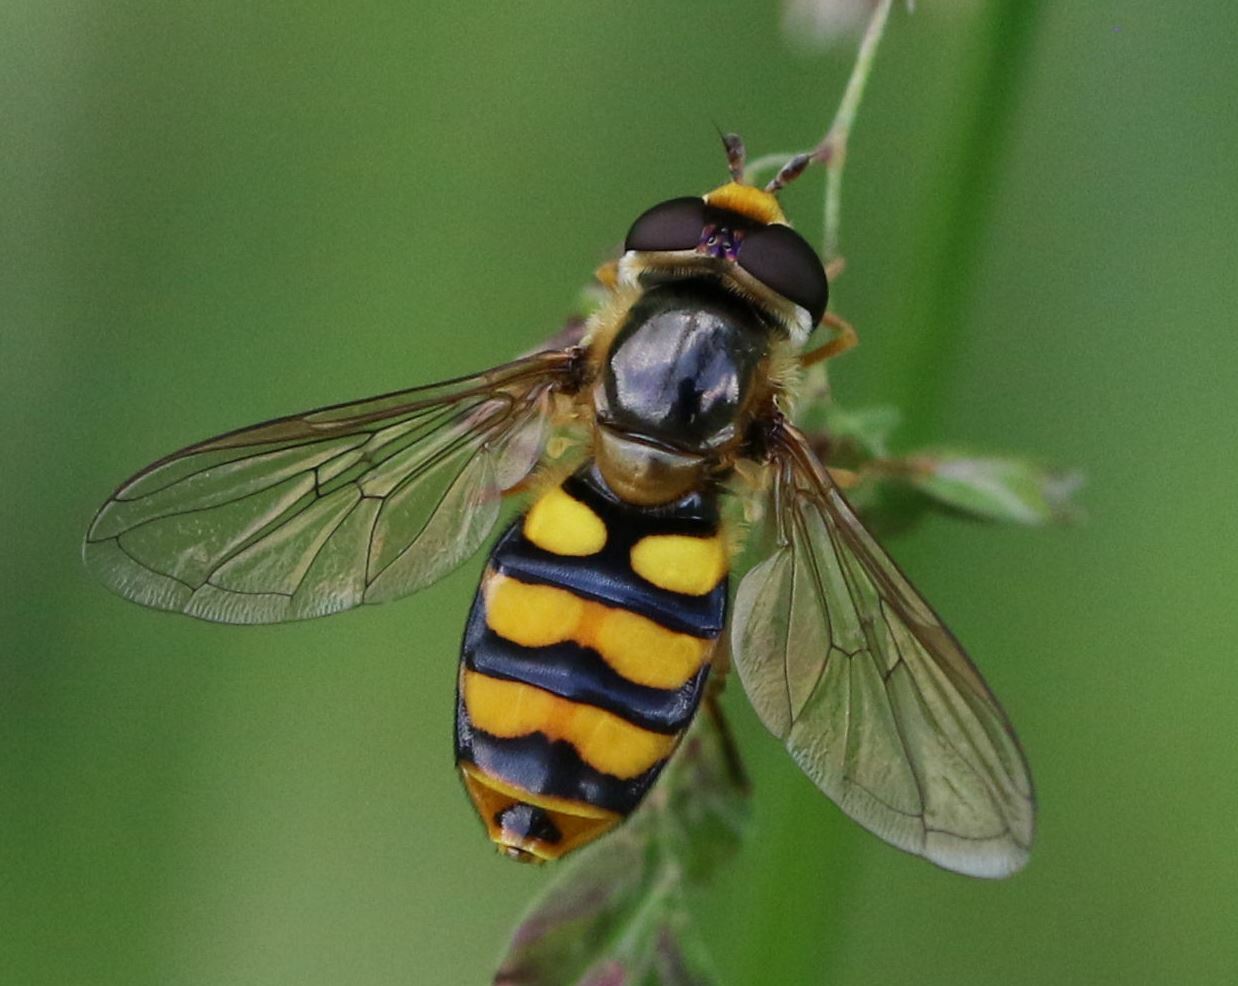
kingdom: Animalia
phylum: Arthropoda
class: Insecta
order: Diptera
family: Syrphidae
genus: Eupeodes
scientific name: Eupeodes latifasciatus
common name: Variable aphideater
